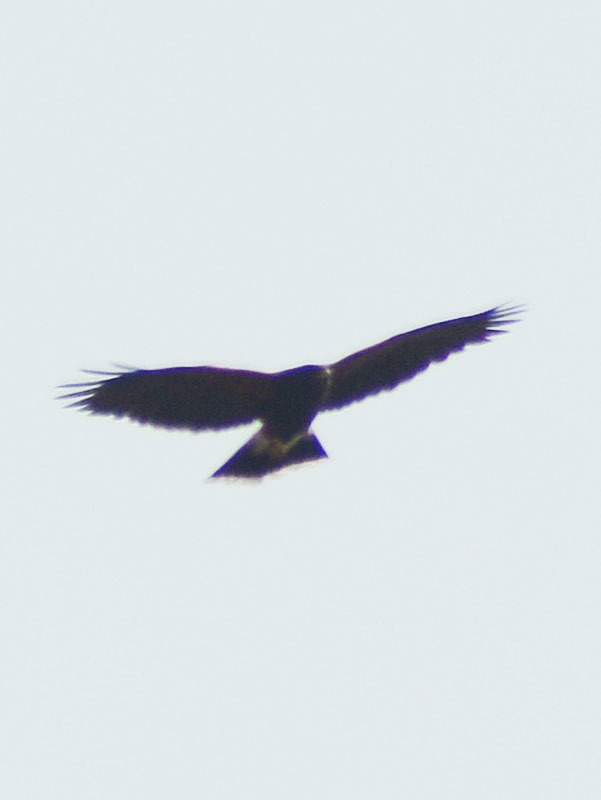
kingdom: Animalia
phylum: Chordata
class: Aves
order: Accipitriformes
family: Accipitridae
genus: Parabuteo
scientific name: Parabuteo unicinctus
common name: Harris's hawk
